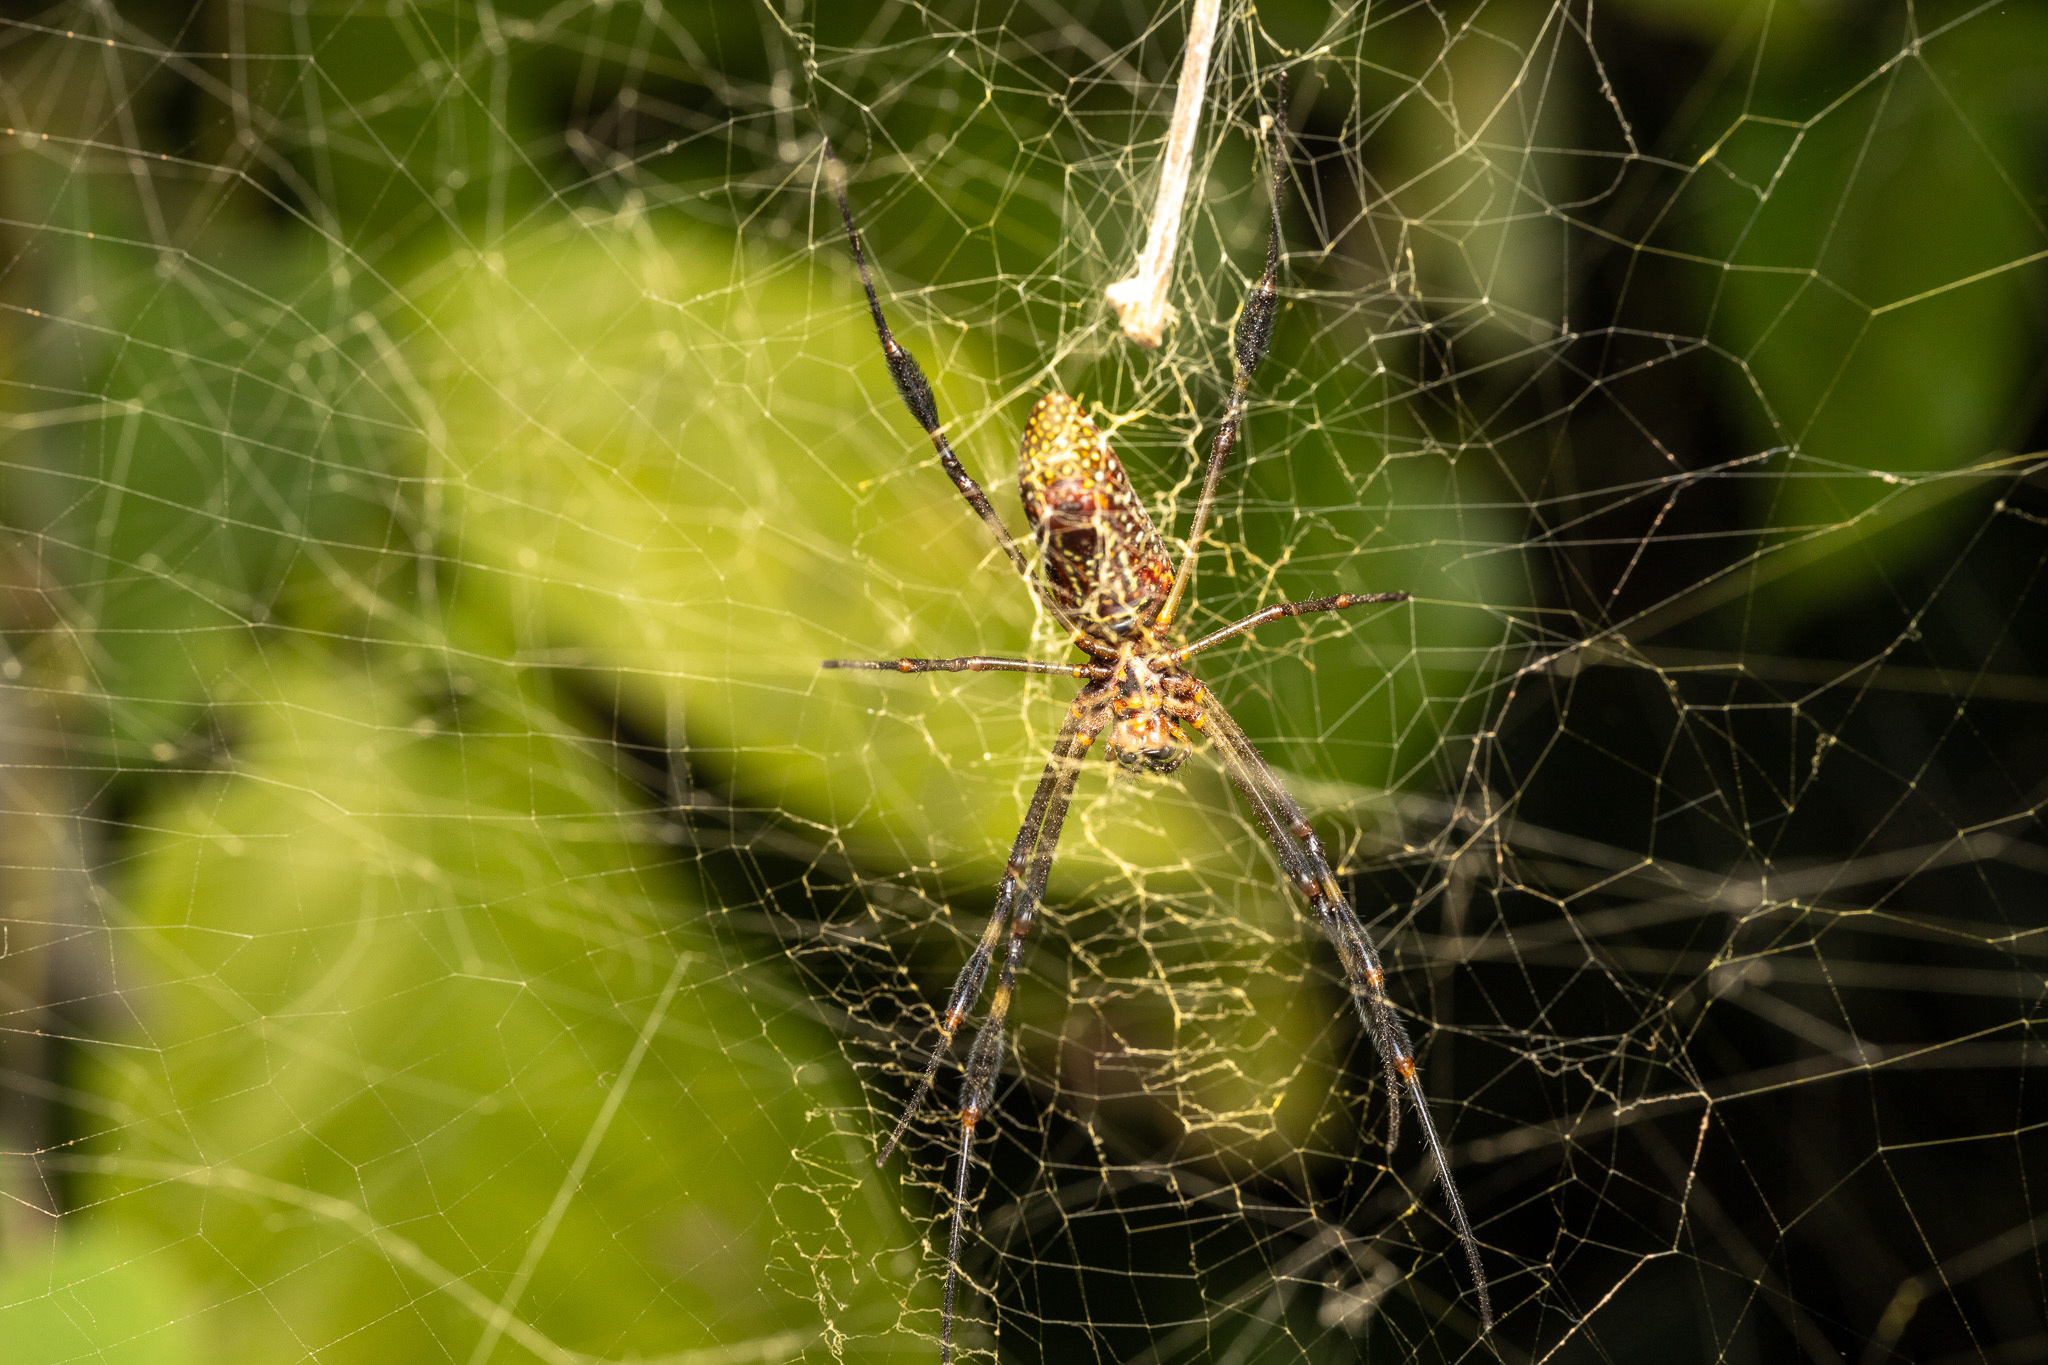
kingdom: Animalia
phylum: Arthropoda
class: Arachnida
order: Araneae
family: Araneidae
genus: Trichonephila
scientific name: Trichonephila clavipes
